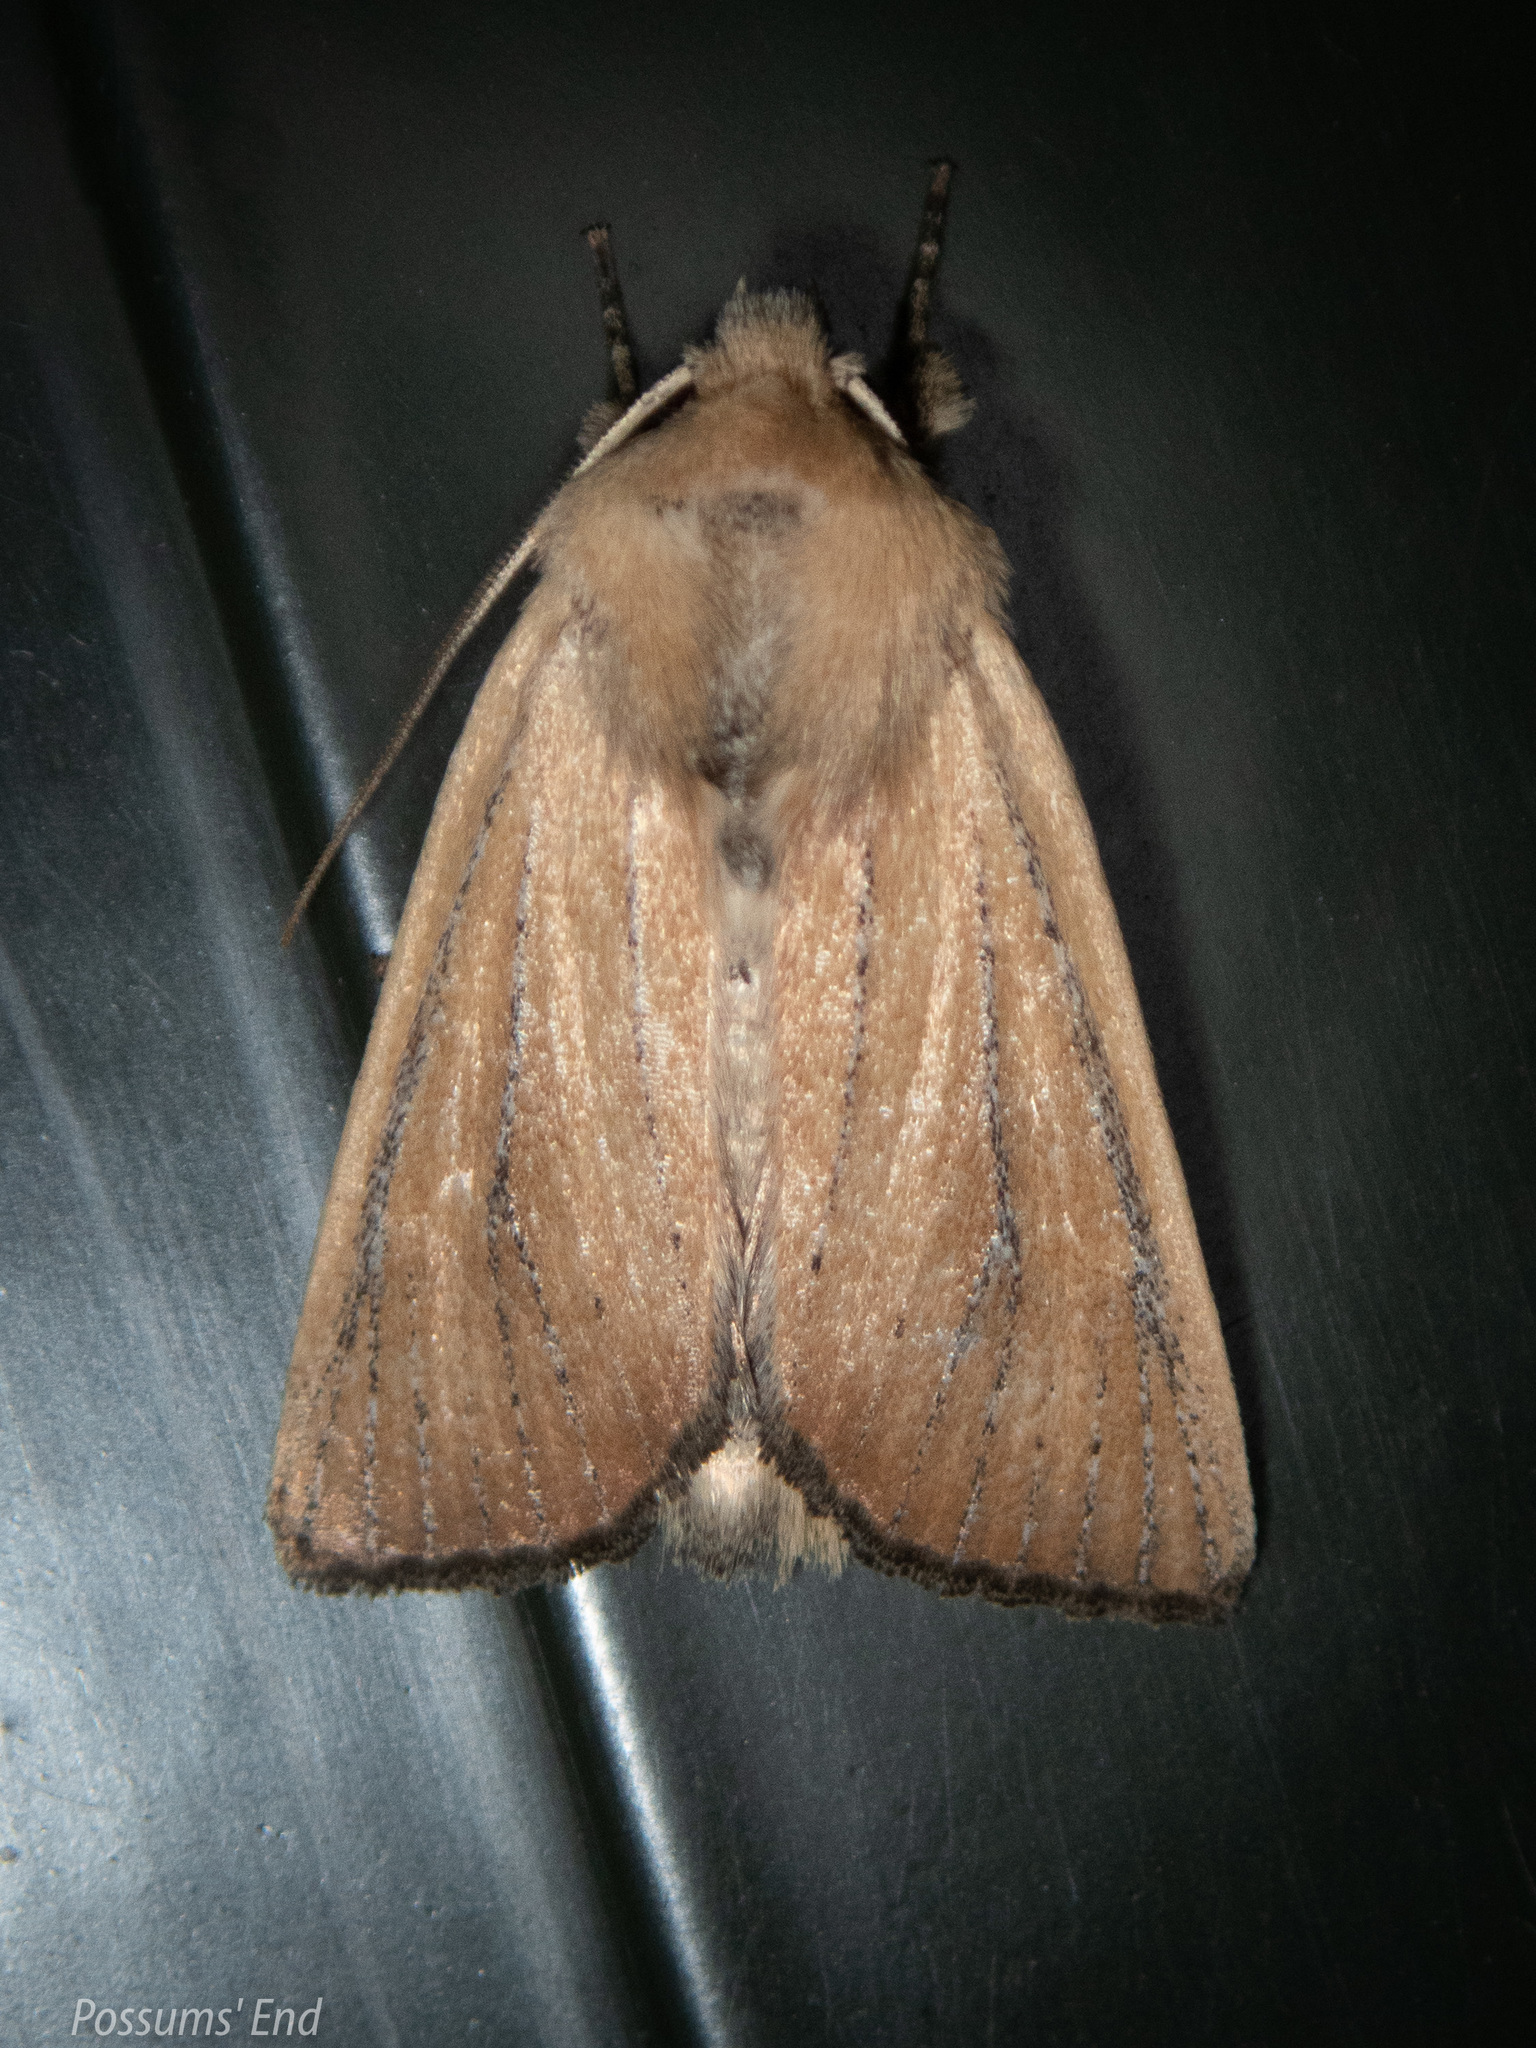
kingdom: Animalia
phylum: Arthropoda
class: Insecta
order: Lepidoptera
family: Noctuidae
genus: Ichneutica
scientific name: Ichneutica blenheimensis
